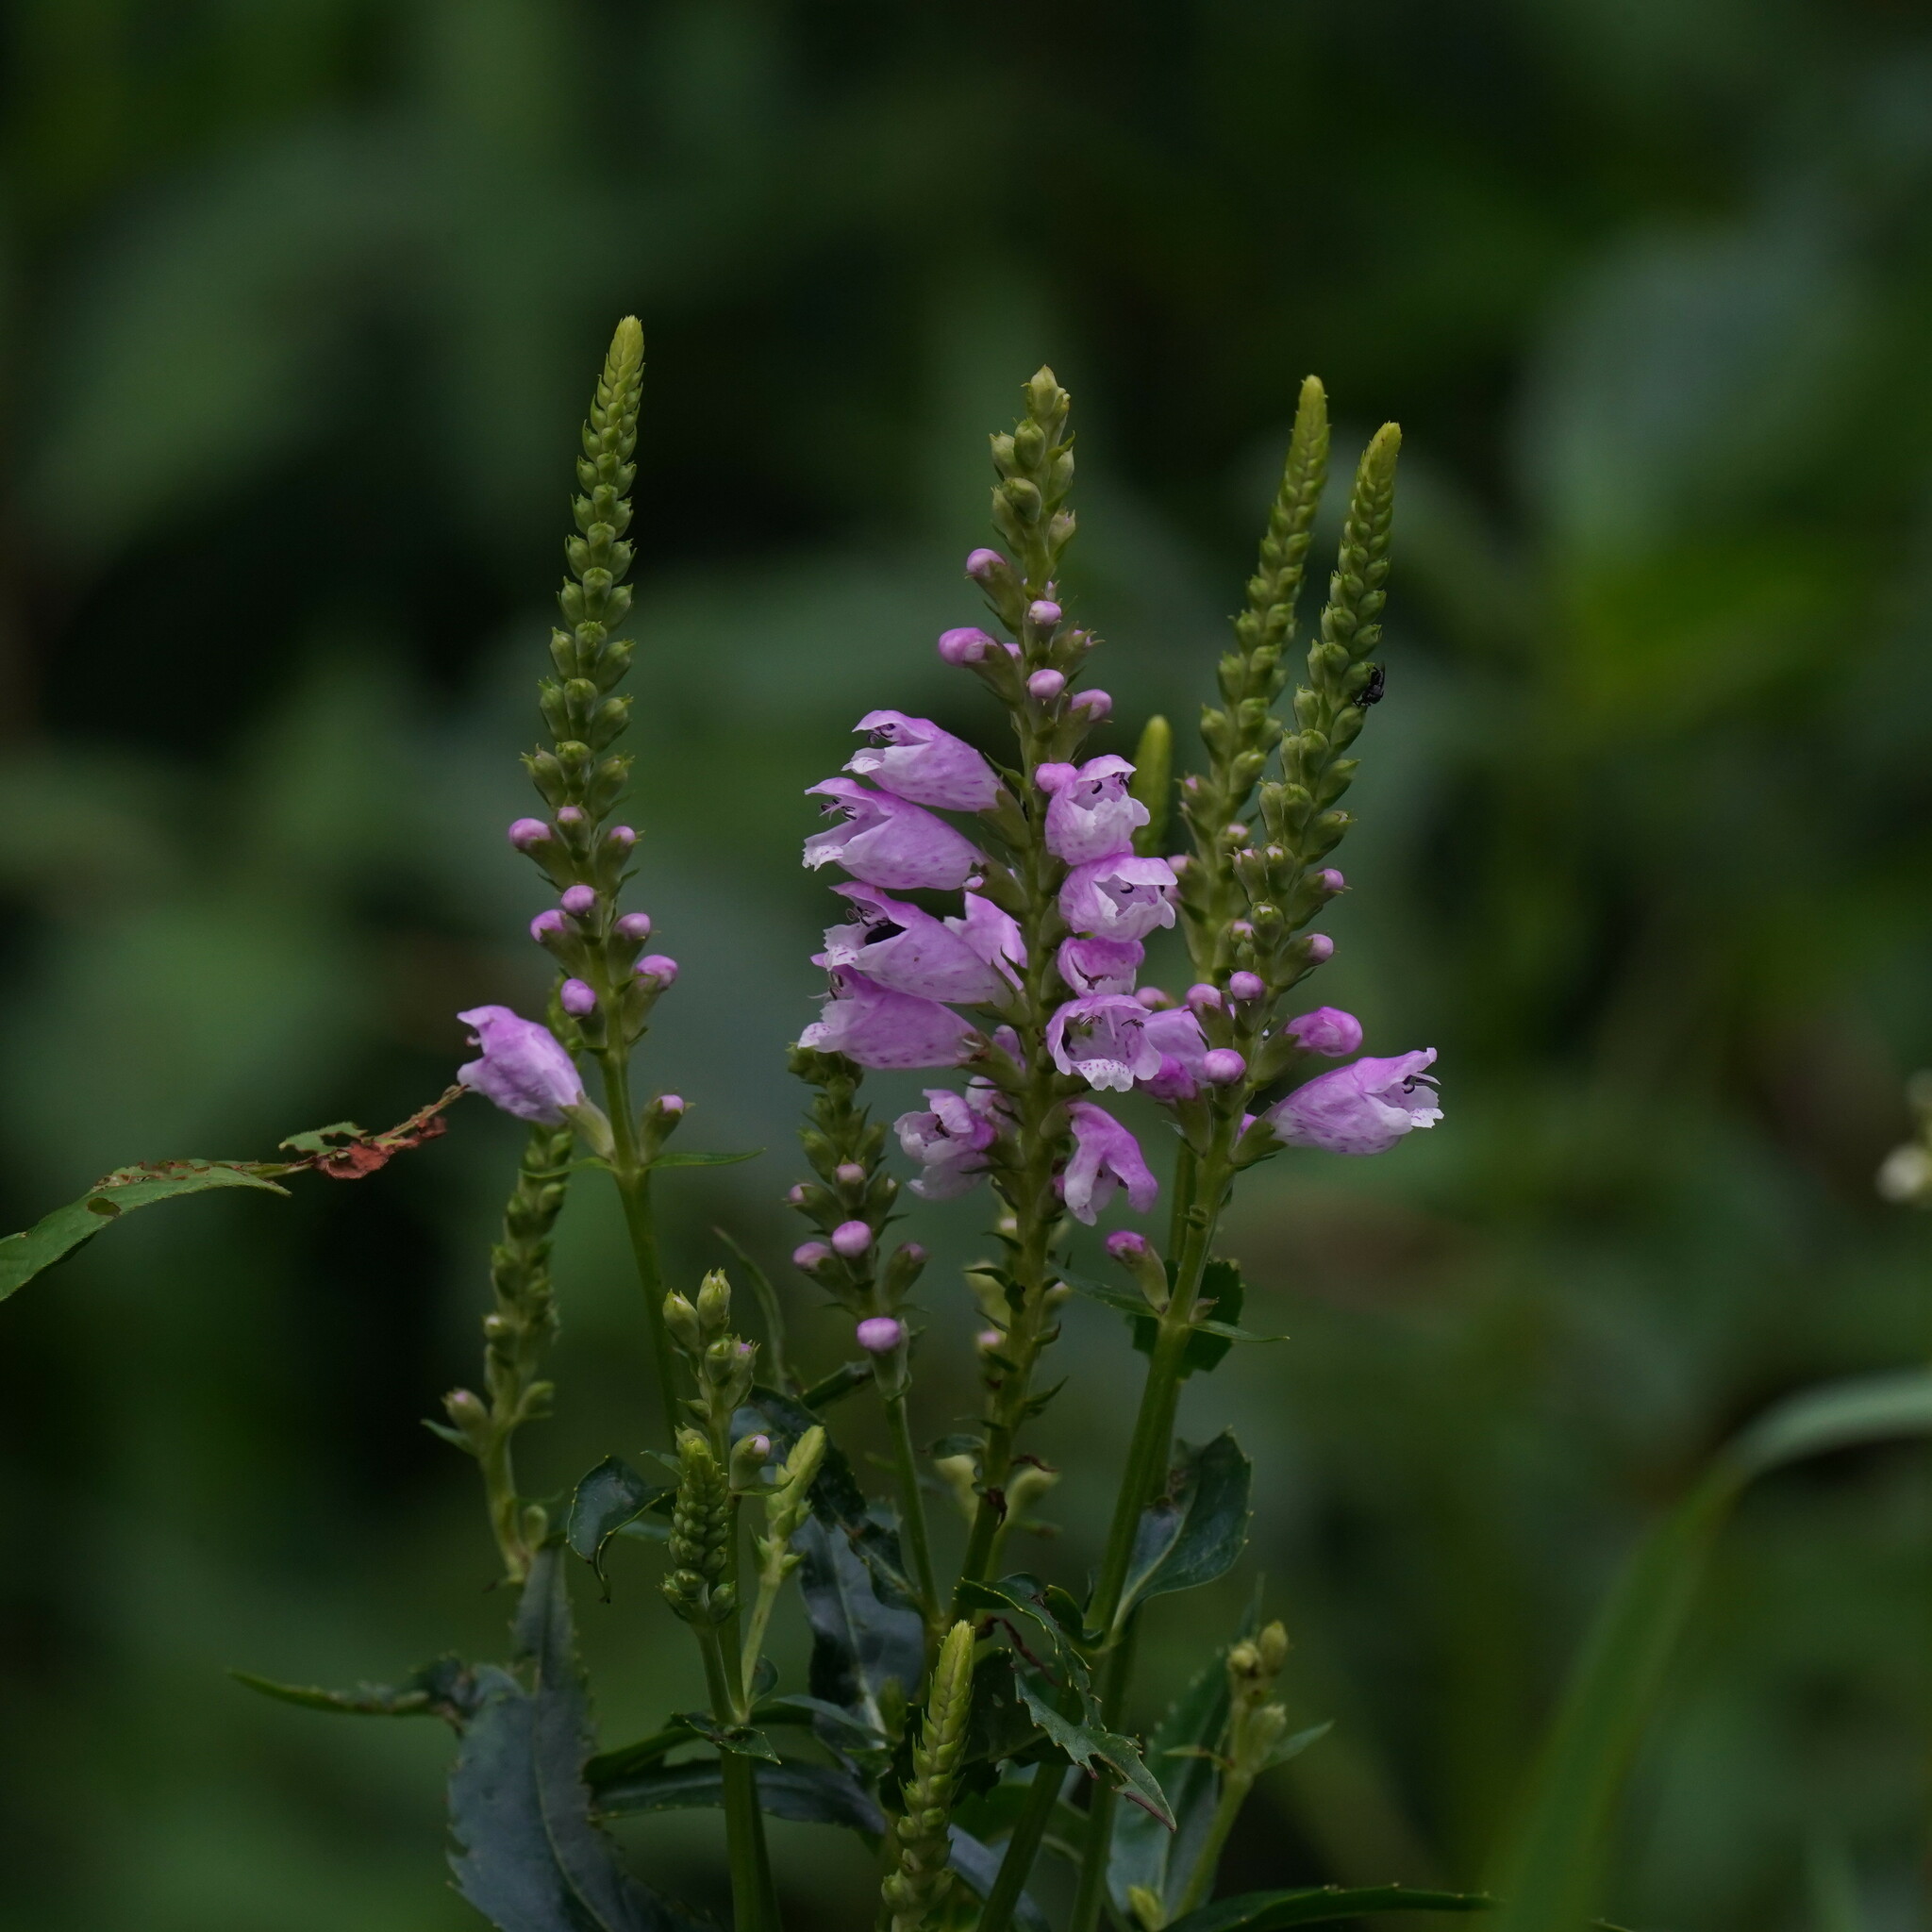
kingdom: Plantae
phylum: Tracheophyta
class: Magnoliopsida
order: Lamiales
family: Lamiaceae
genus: Physostegia
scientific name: Physostegia virginiana
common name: Obedient-plant
